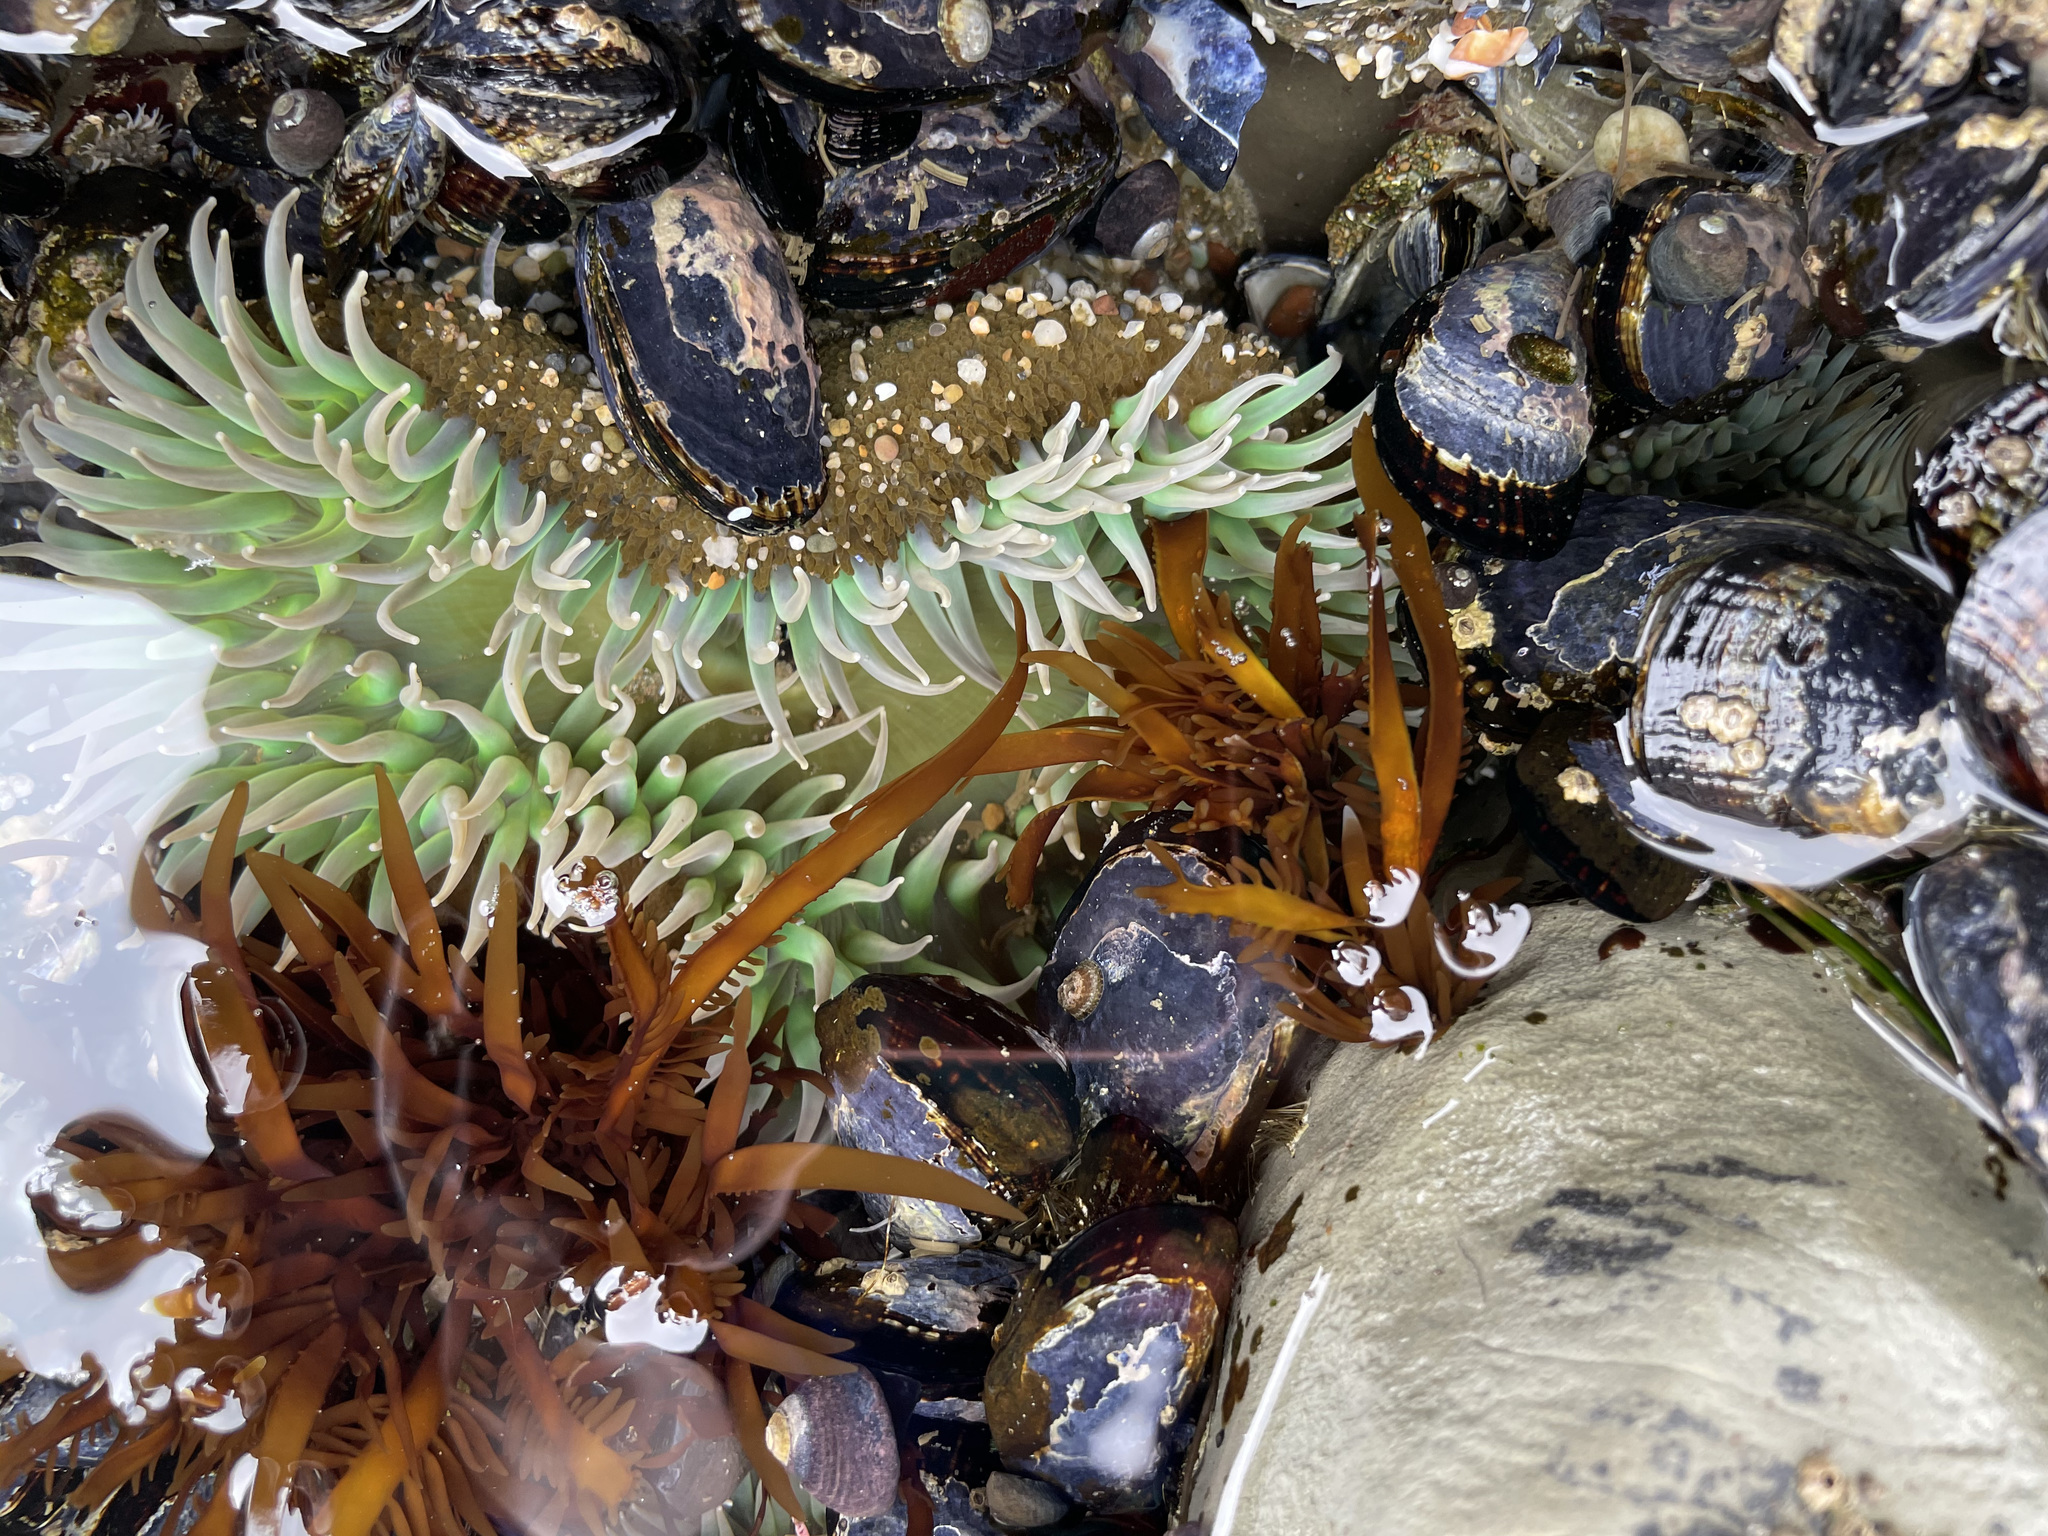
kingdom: Animalia
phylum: Cnidaria
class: Anthozoa
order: Actiniaria
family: Actiniidae
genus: Anthopleura
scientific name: Anthopleura xanthogrammica
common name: Giant green anemone
